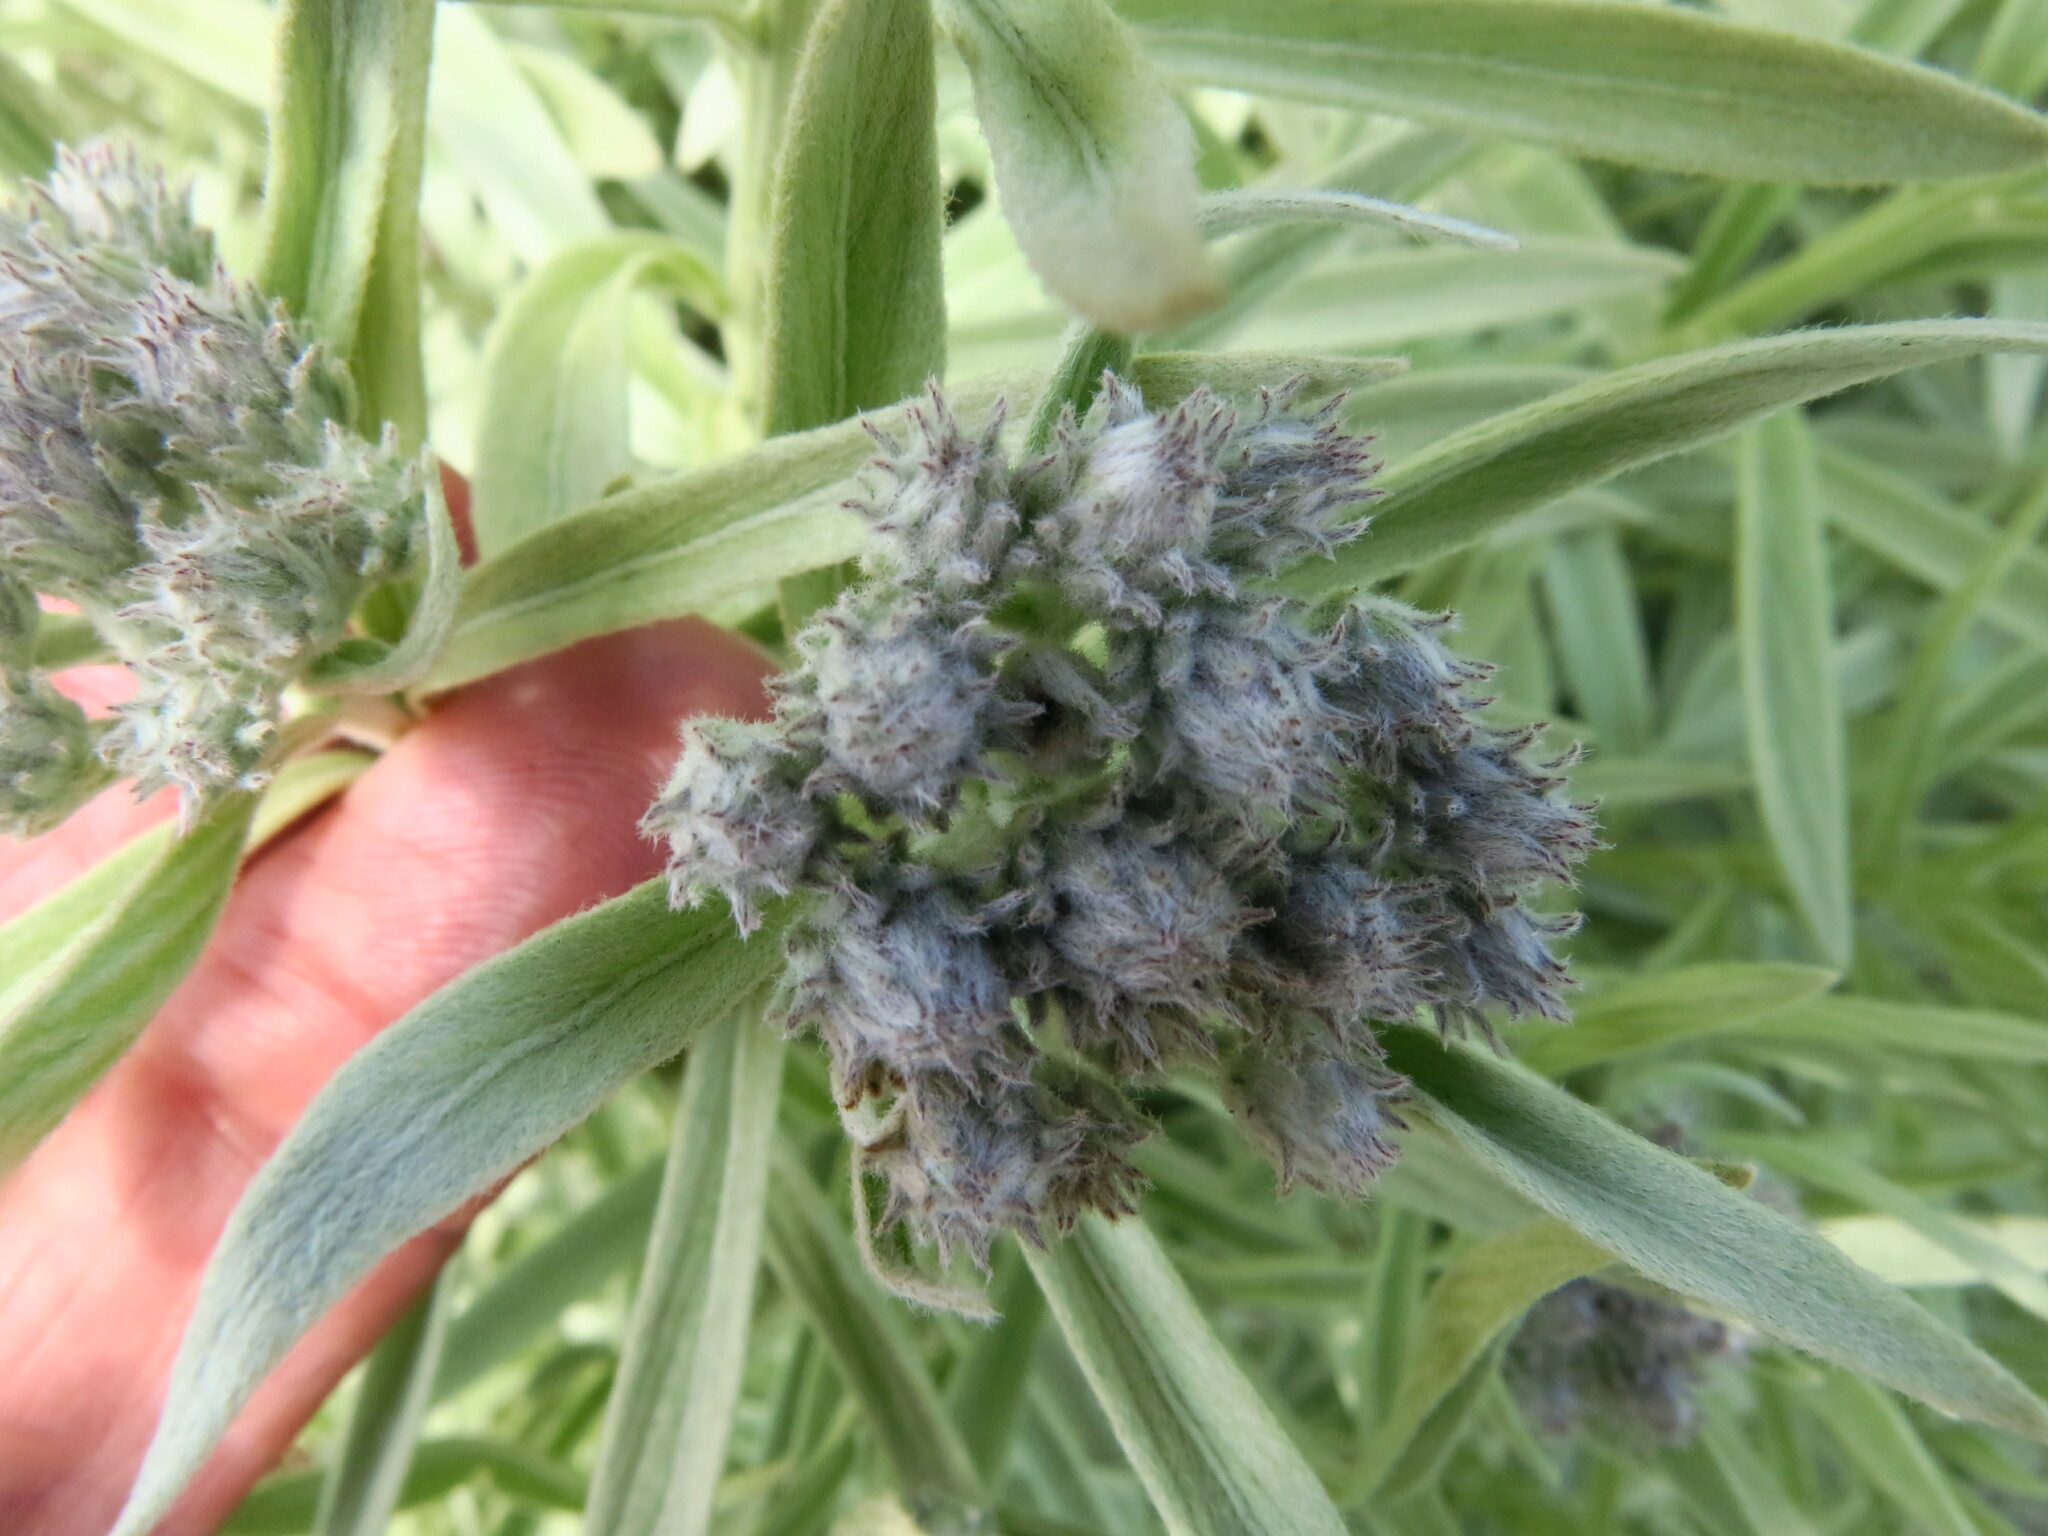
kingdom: Plantae
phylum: Tracheophyta
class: Magnoliopsida
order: Asterales
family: Asteraceae
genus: Hilliardiella
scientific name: Hilliardiella aristata
